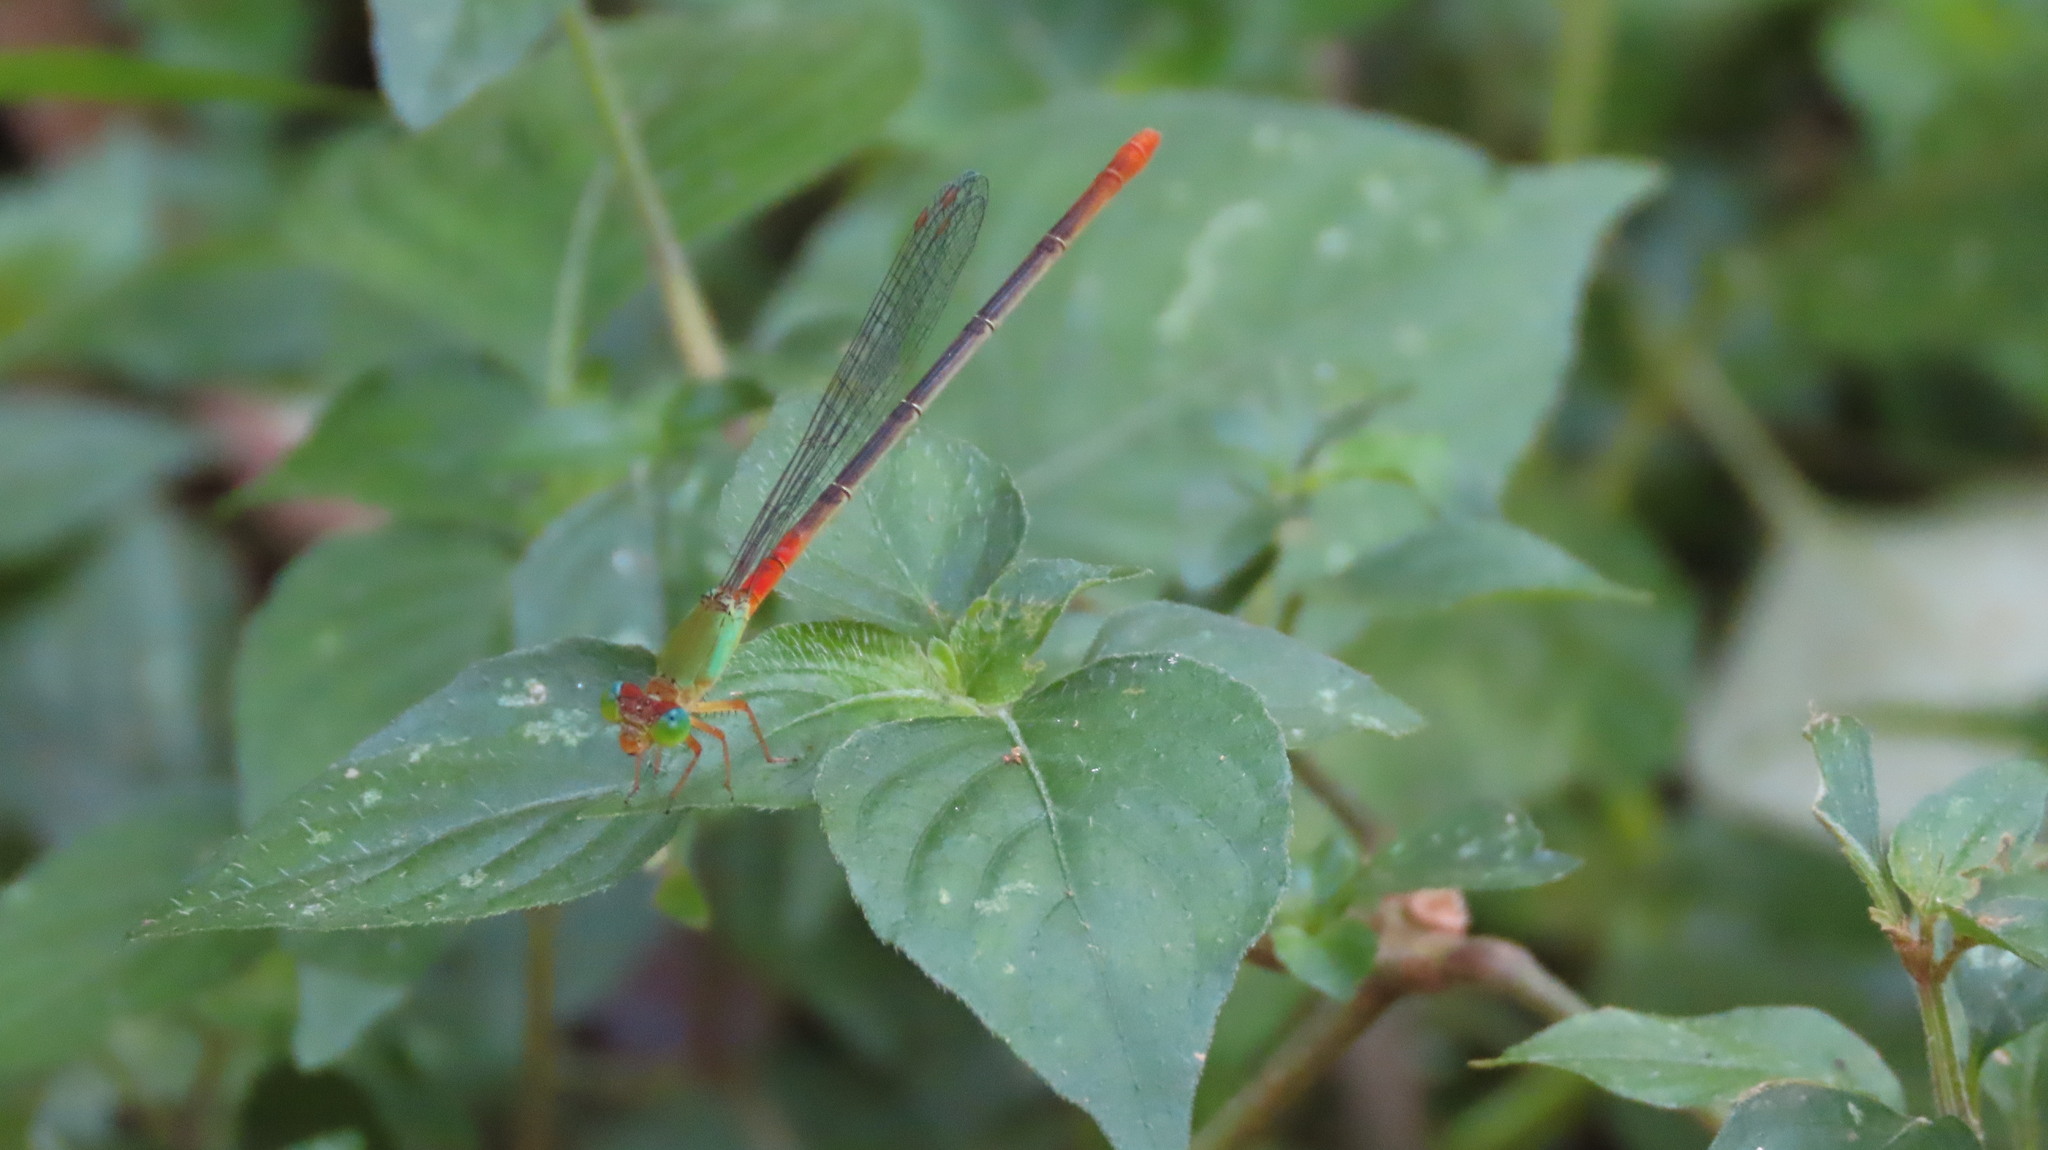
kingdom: Animalia
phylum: Arthropoda
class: Insecta
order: Odonata
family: Coenagrionidae
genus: Ceriagrion
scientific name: Ceriagrion cerinorubellum
